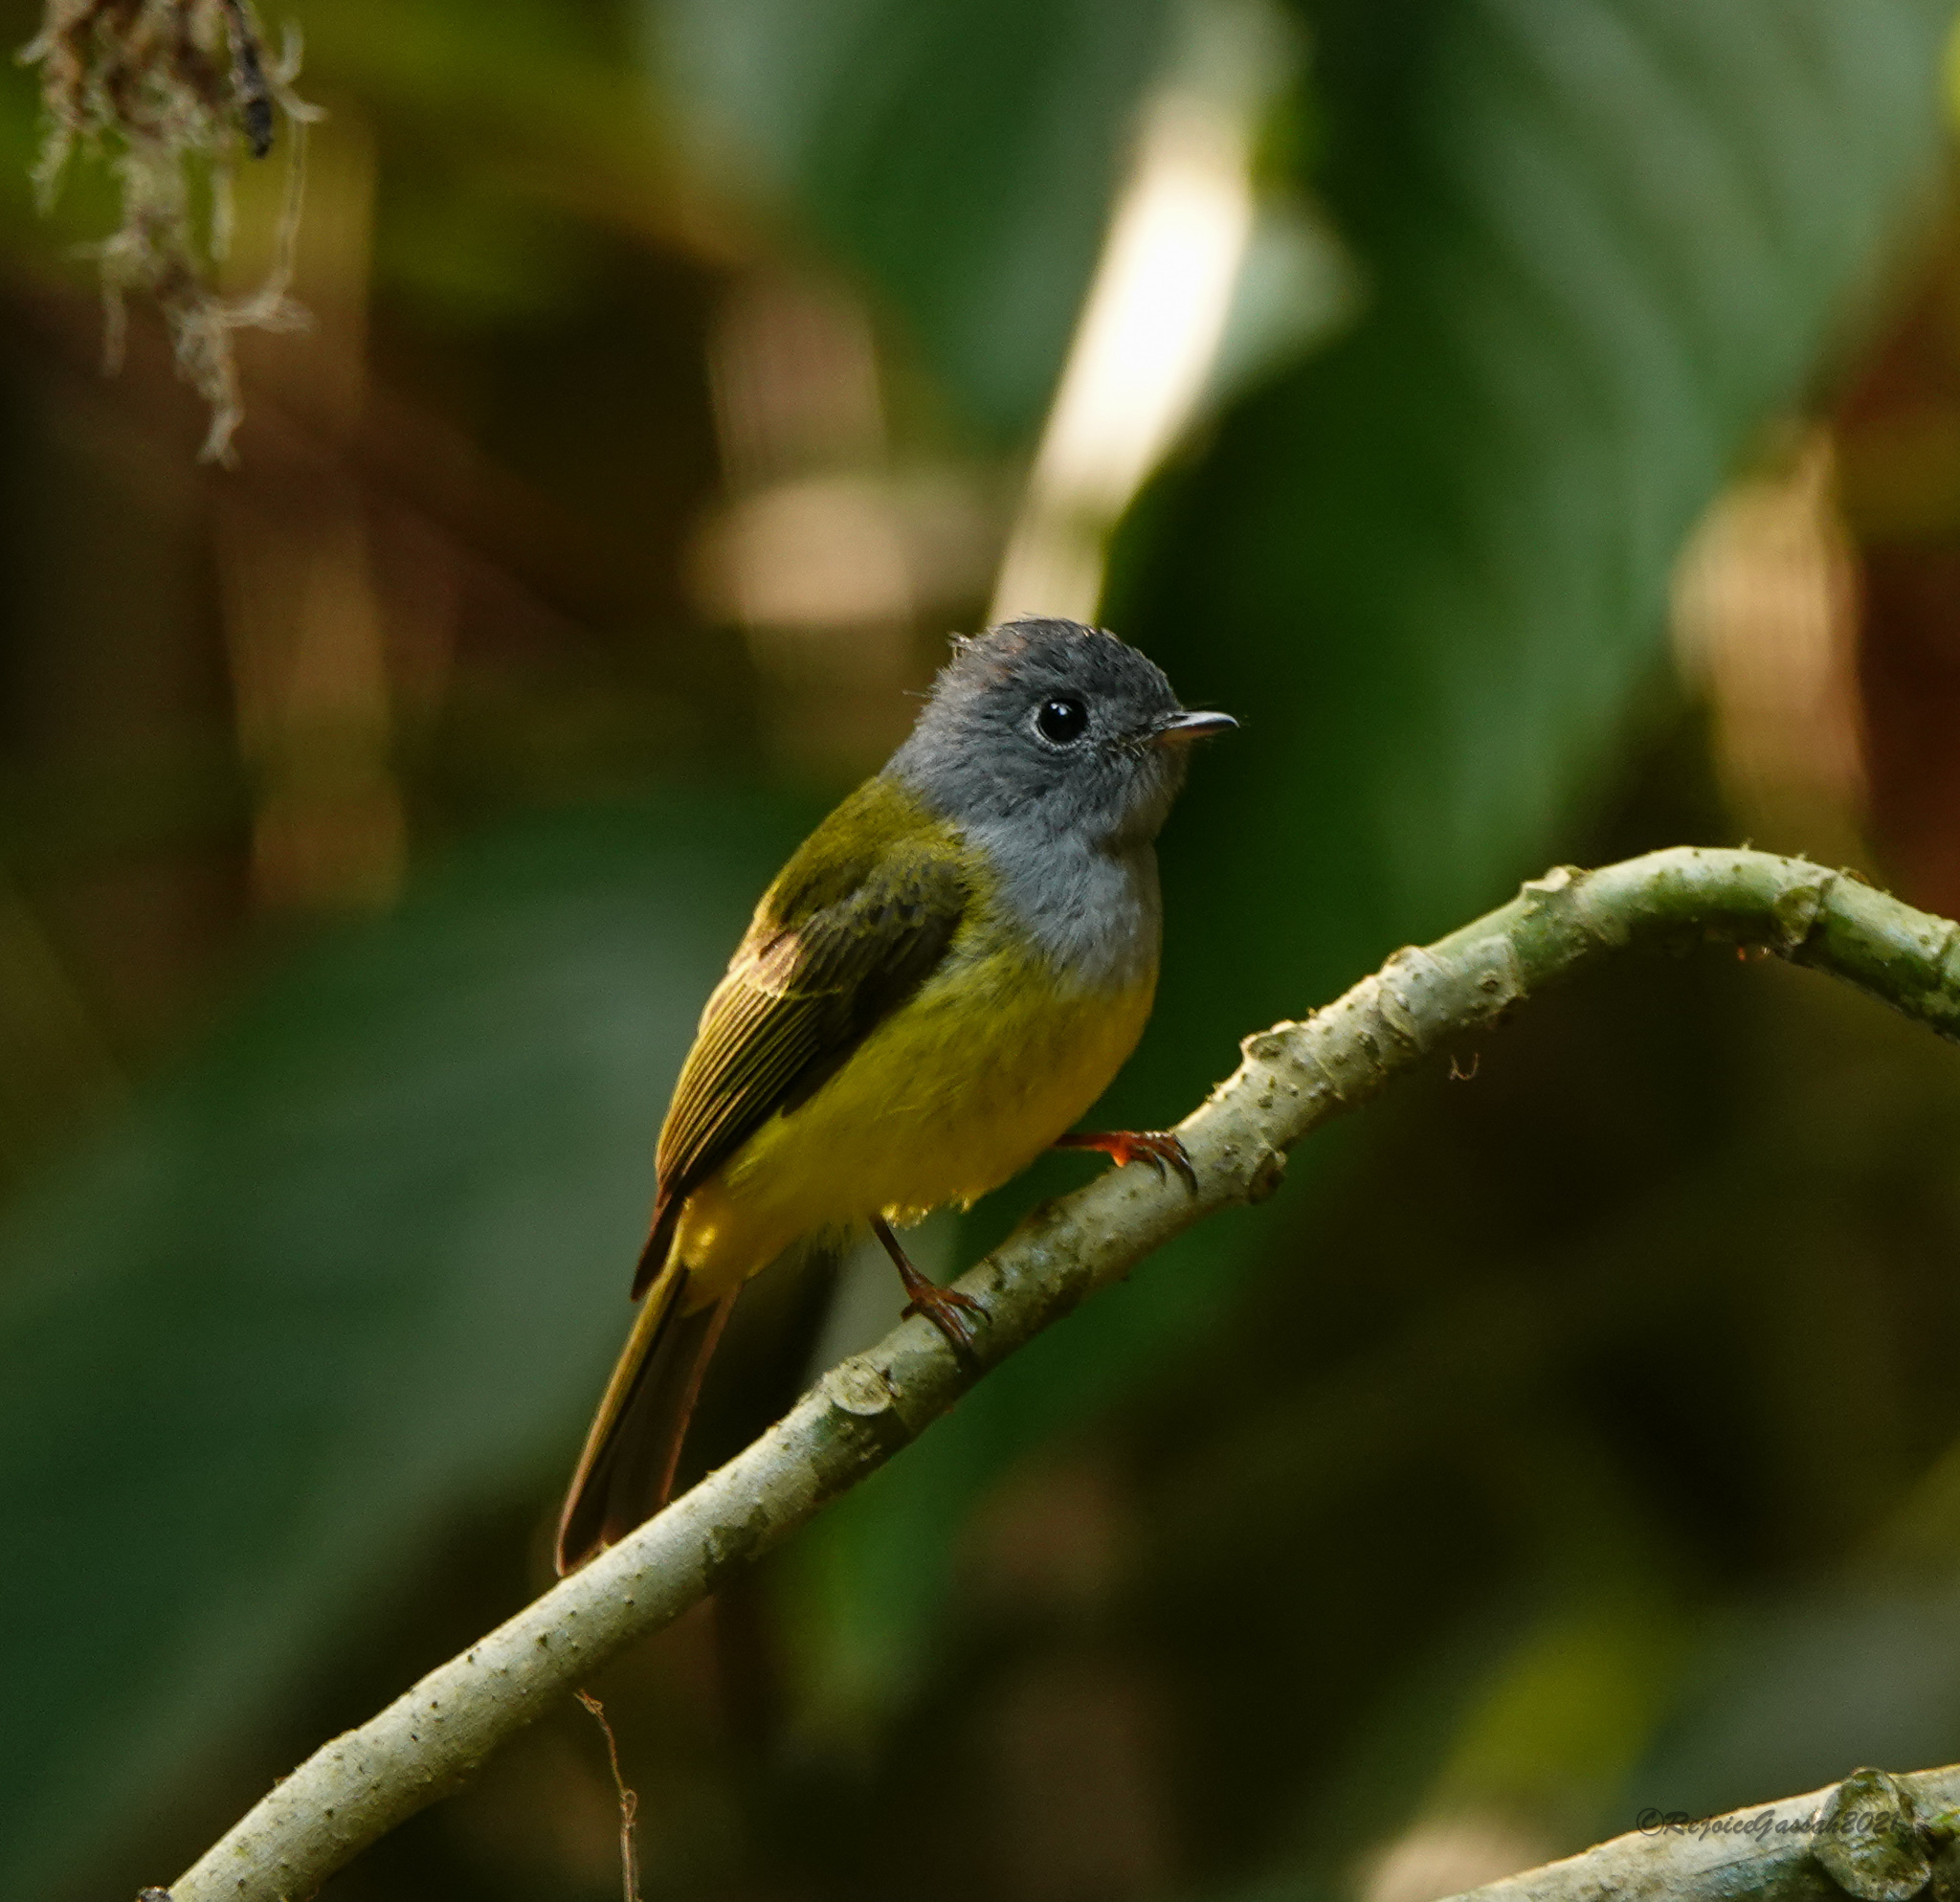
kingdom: Animalia
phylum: Chordata
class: Aves
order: Passeriformes
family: Stenostiridae
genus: Culicicapa
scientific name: Culicicapa ceylonensis
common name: Grey-headed canary-flycatcher
